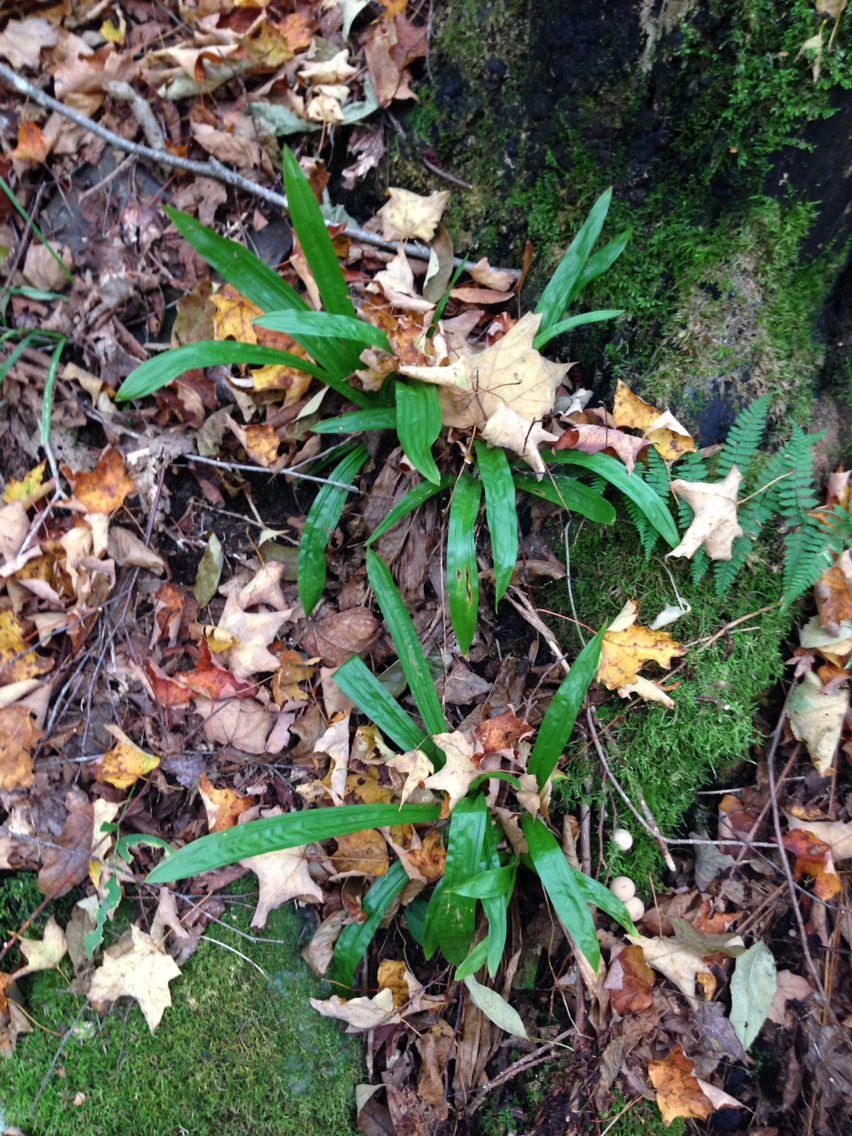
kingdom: Plantae
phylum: Tracheophyta
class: Liliopsida
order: Poales
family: Cyperaceae
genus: Carex
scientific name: Carex plantaginea
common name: Plantain-leaved sedge
